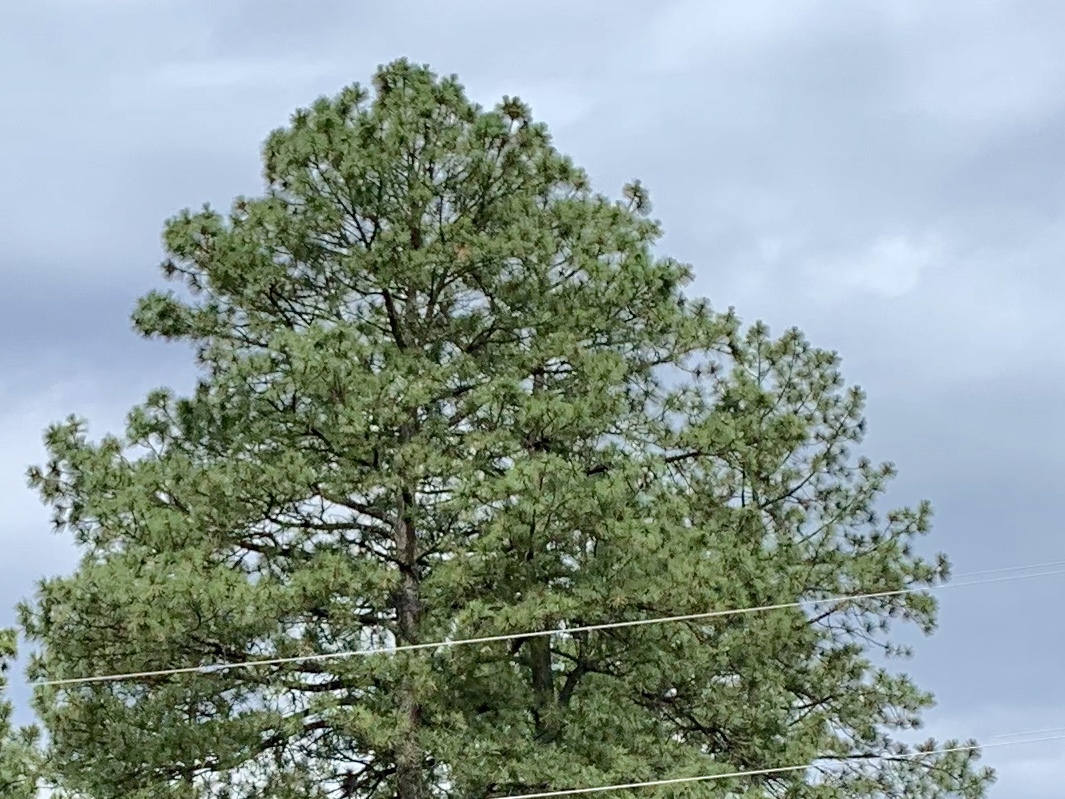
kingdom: Plantae
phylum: Tracheophyta
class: Pinopsida
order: Pinales
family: Pinaceae
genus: Pinus
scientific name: Pinus ponderosa
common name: Western yellow-pine
